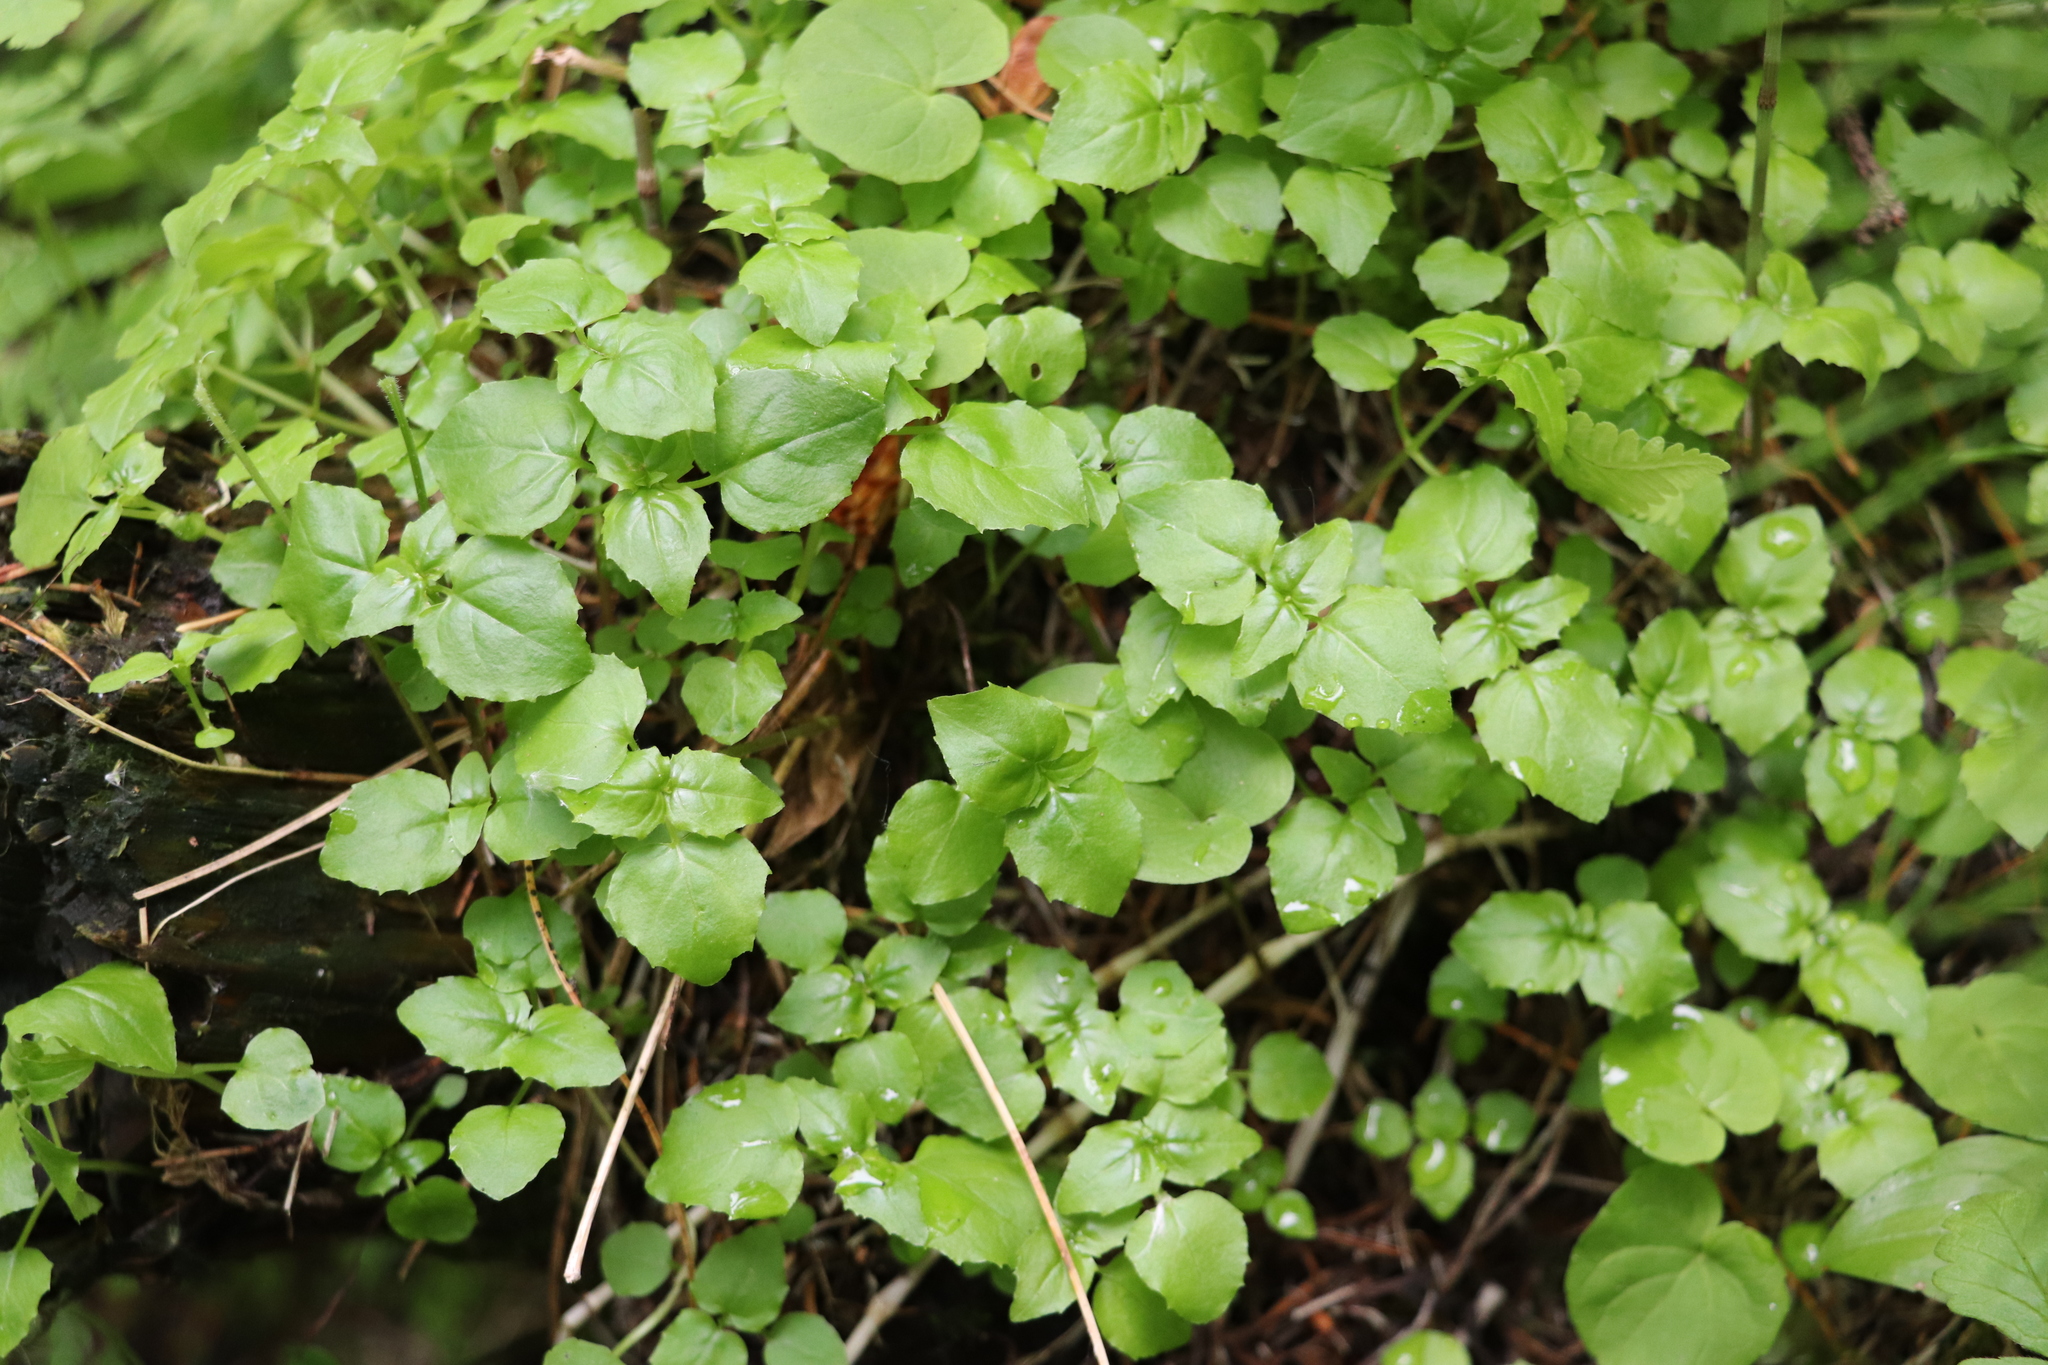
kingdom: Plantae
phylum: Tracheophyta
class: Magnoliopsida
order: Myrtales
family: Onagraceae
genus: Circaea
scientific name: Circaea alpina
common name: Alpine enchanter's-nightshade
